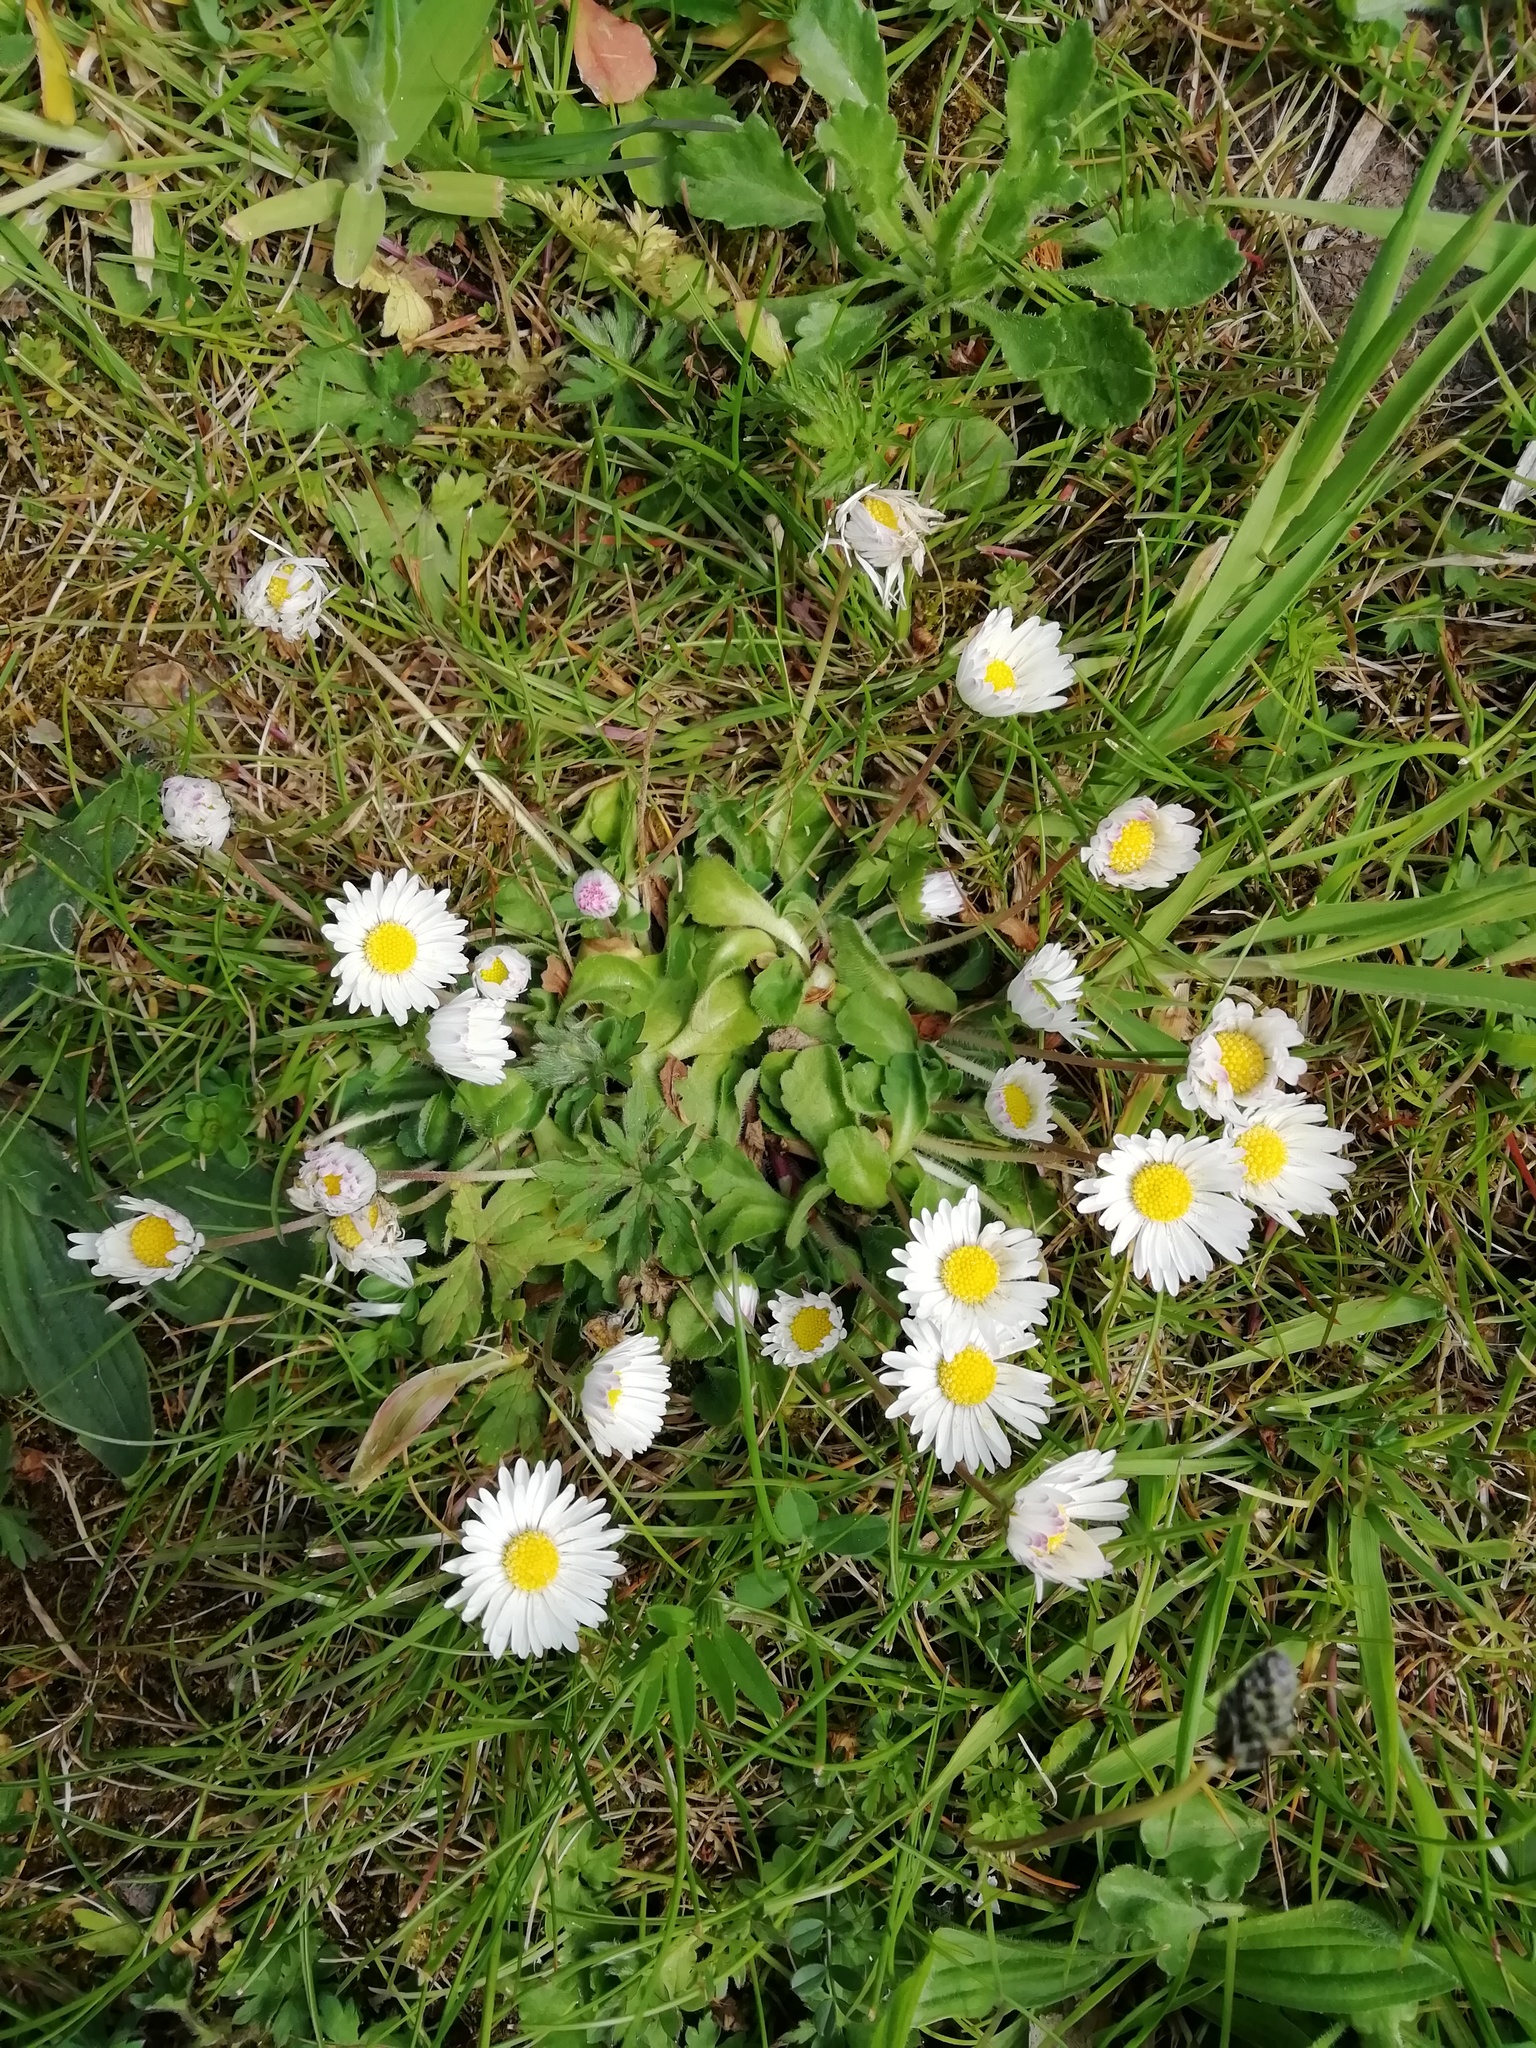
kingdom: Plantae
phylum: Tracheophyta
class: Magnoliopsida
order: Asterales
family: Asteraceae
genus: Bellis
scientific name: Bellis perennis
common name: Lawndaisy
